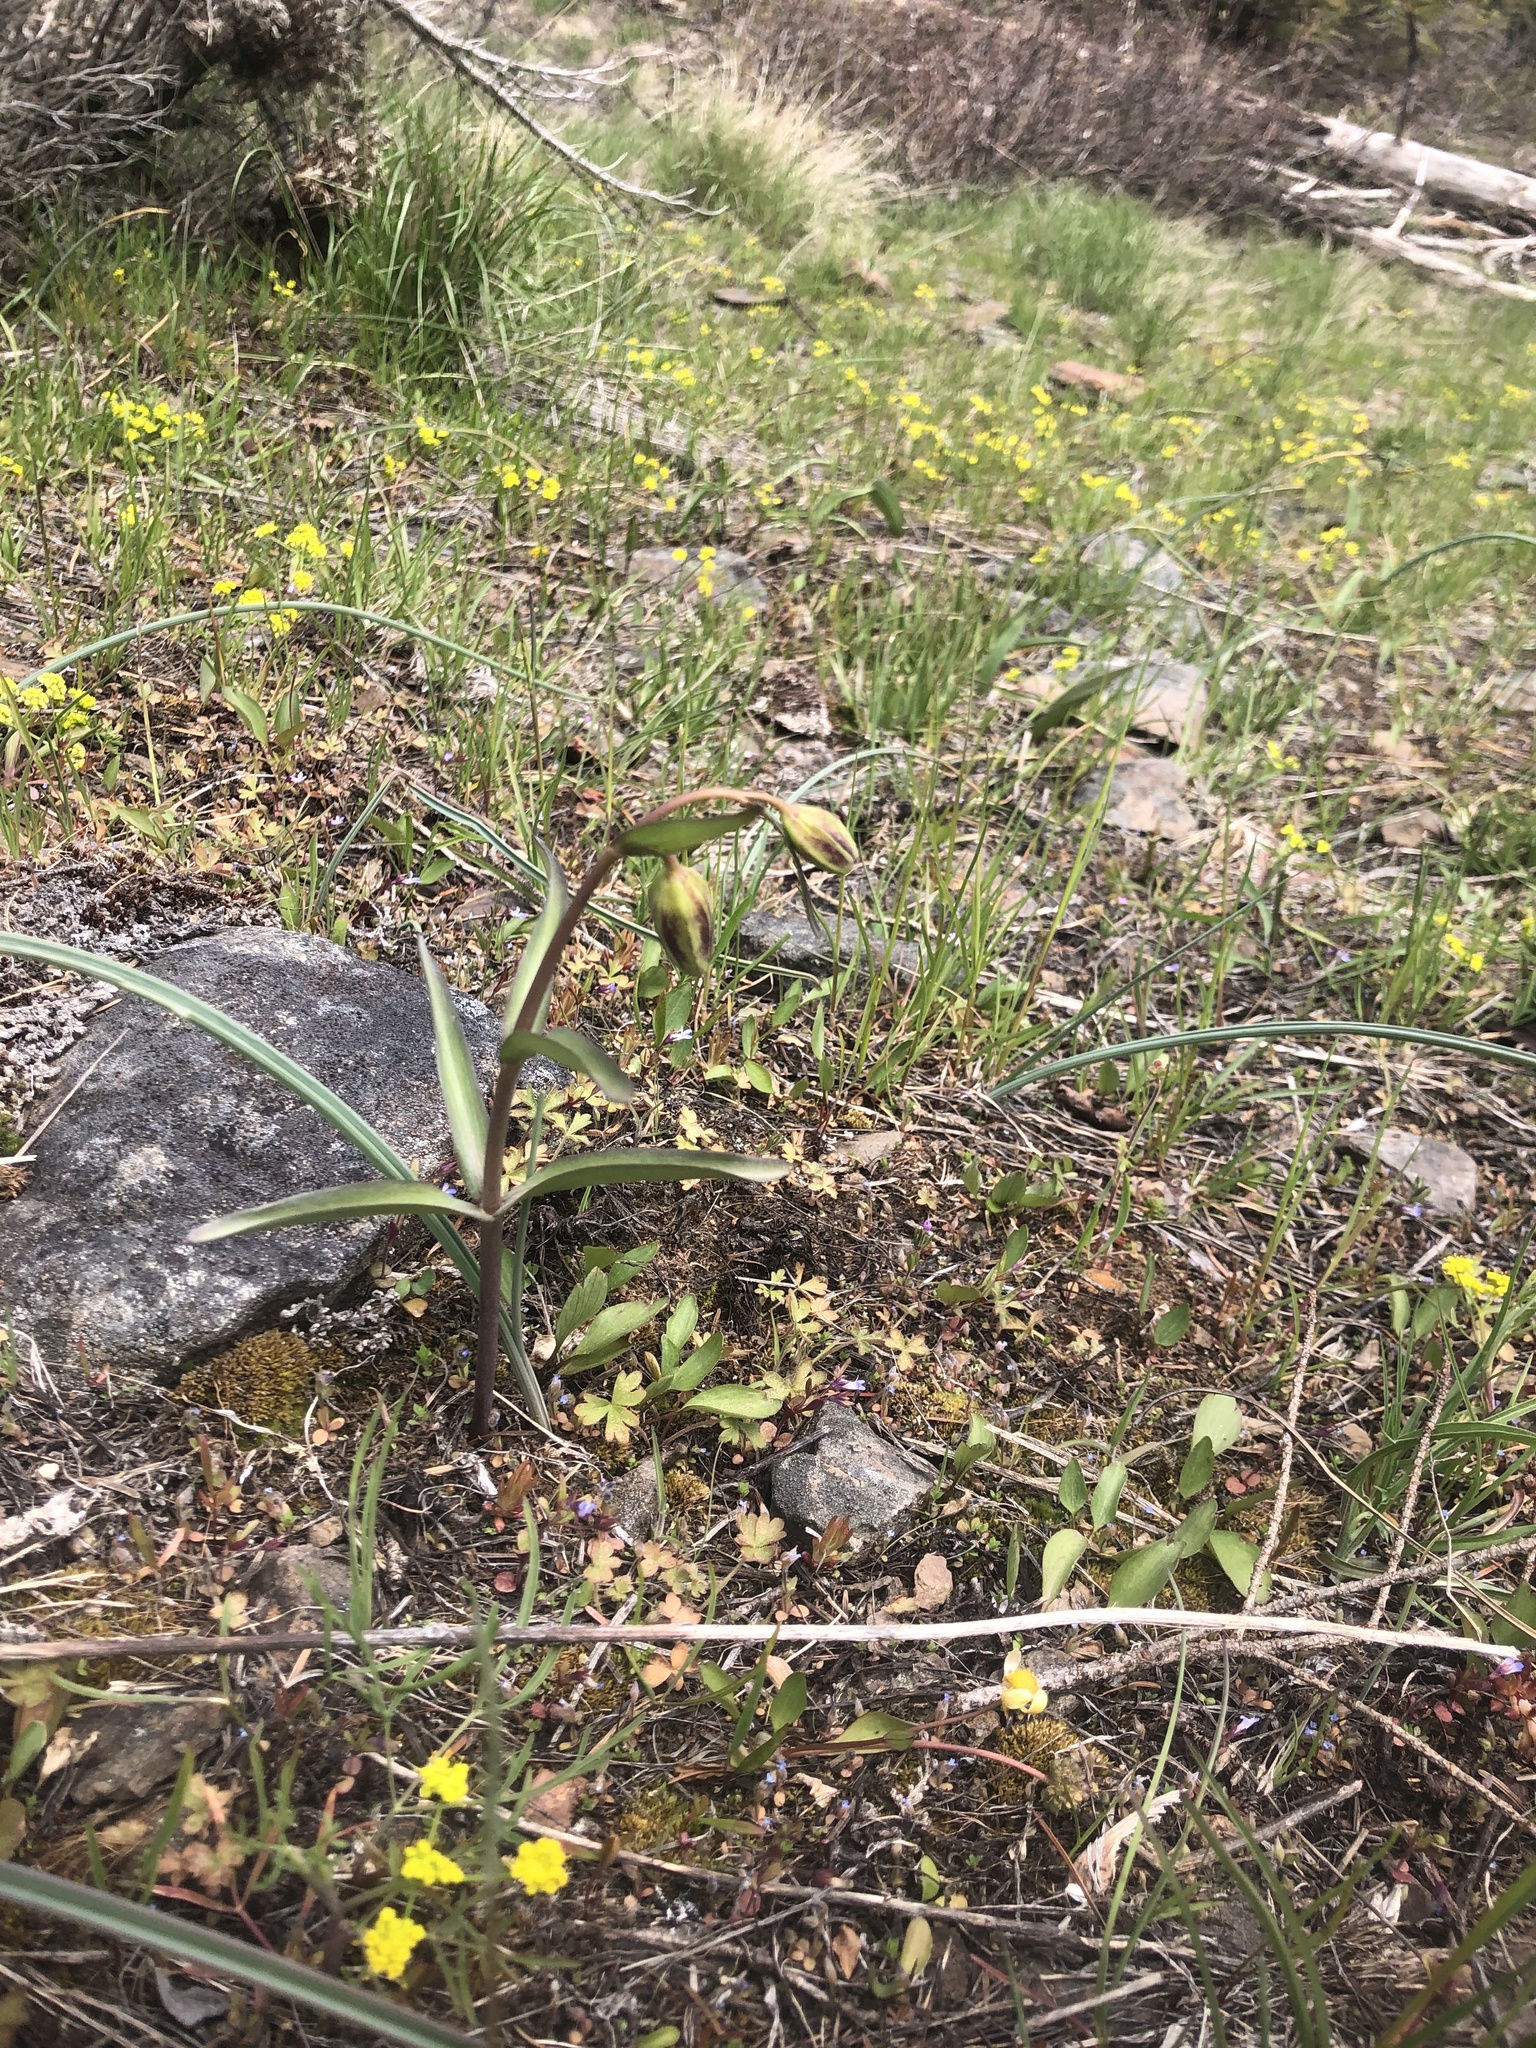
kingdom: Plantae
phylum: Tracheophyta
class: Liliopsida
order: Liliales
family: Liliaceae
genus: Fritillaria
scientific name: Fritillaria affinis
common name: Ojai fritillary
